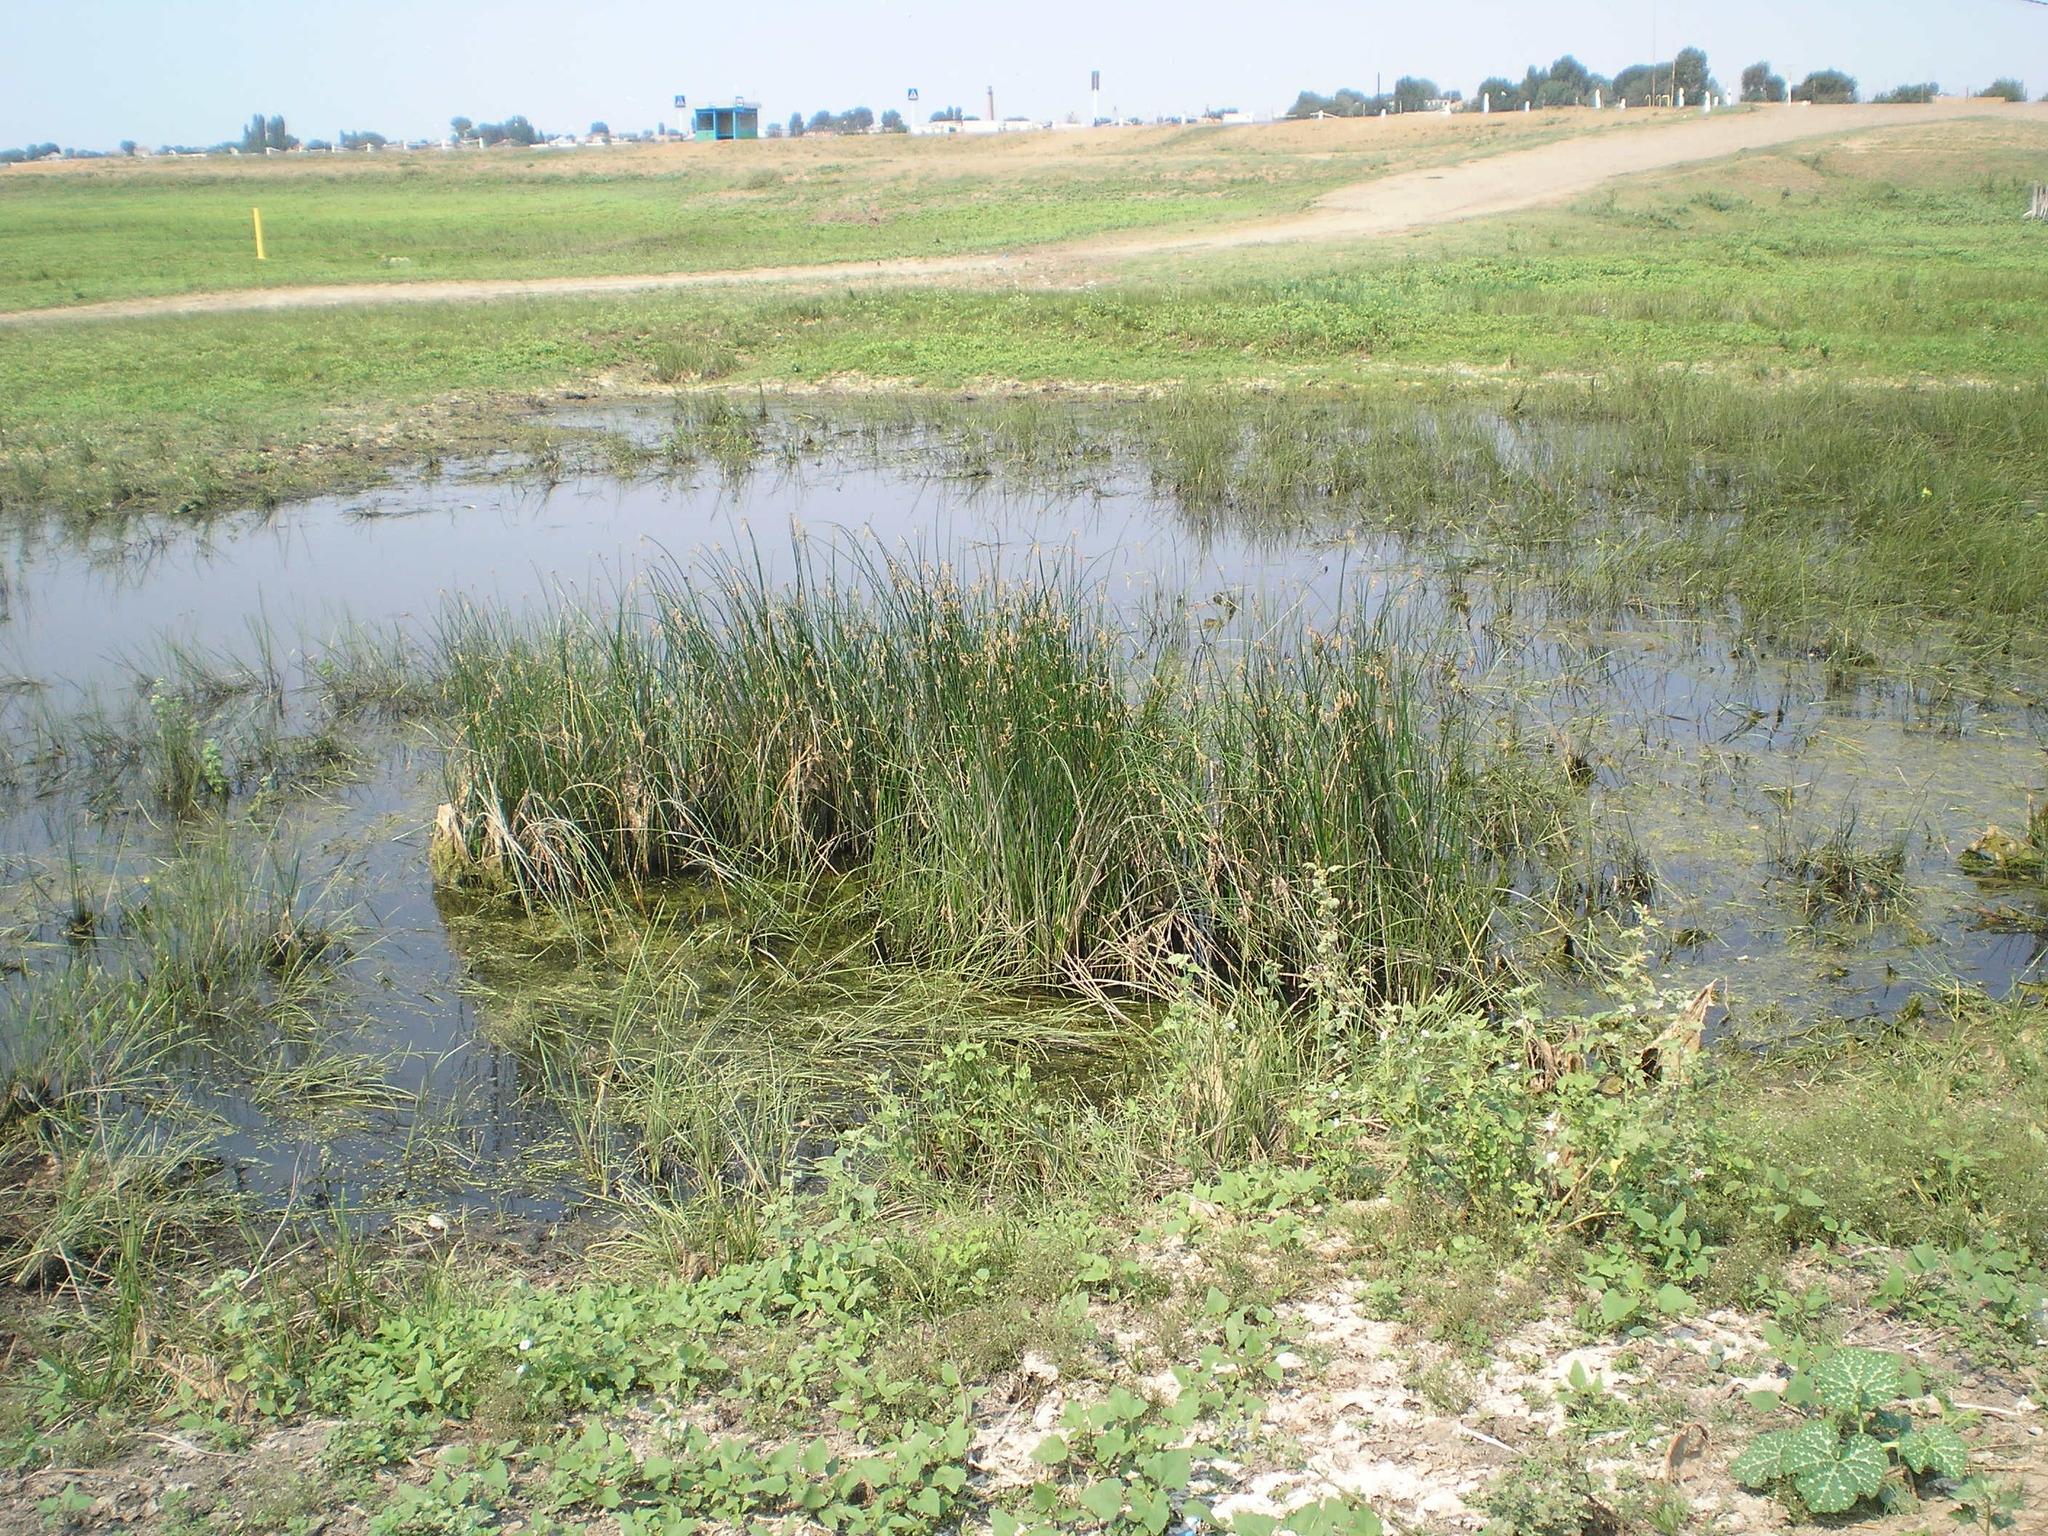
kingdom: Plantae
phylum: Tracheophyta
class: Liliopsida
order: Poales
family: Cyperaceae
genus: Schoenoplectus
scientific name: Schoenoplectus lacustris
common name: Common club-rush
